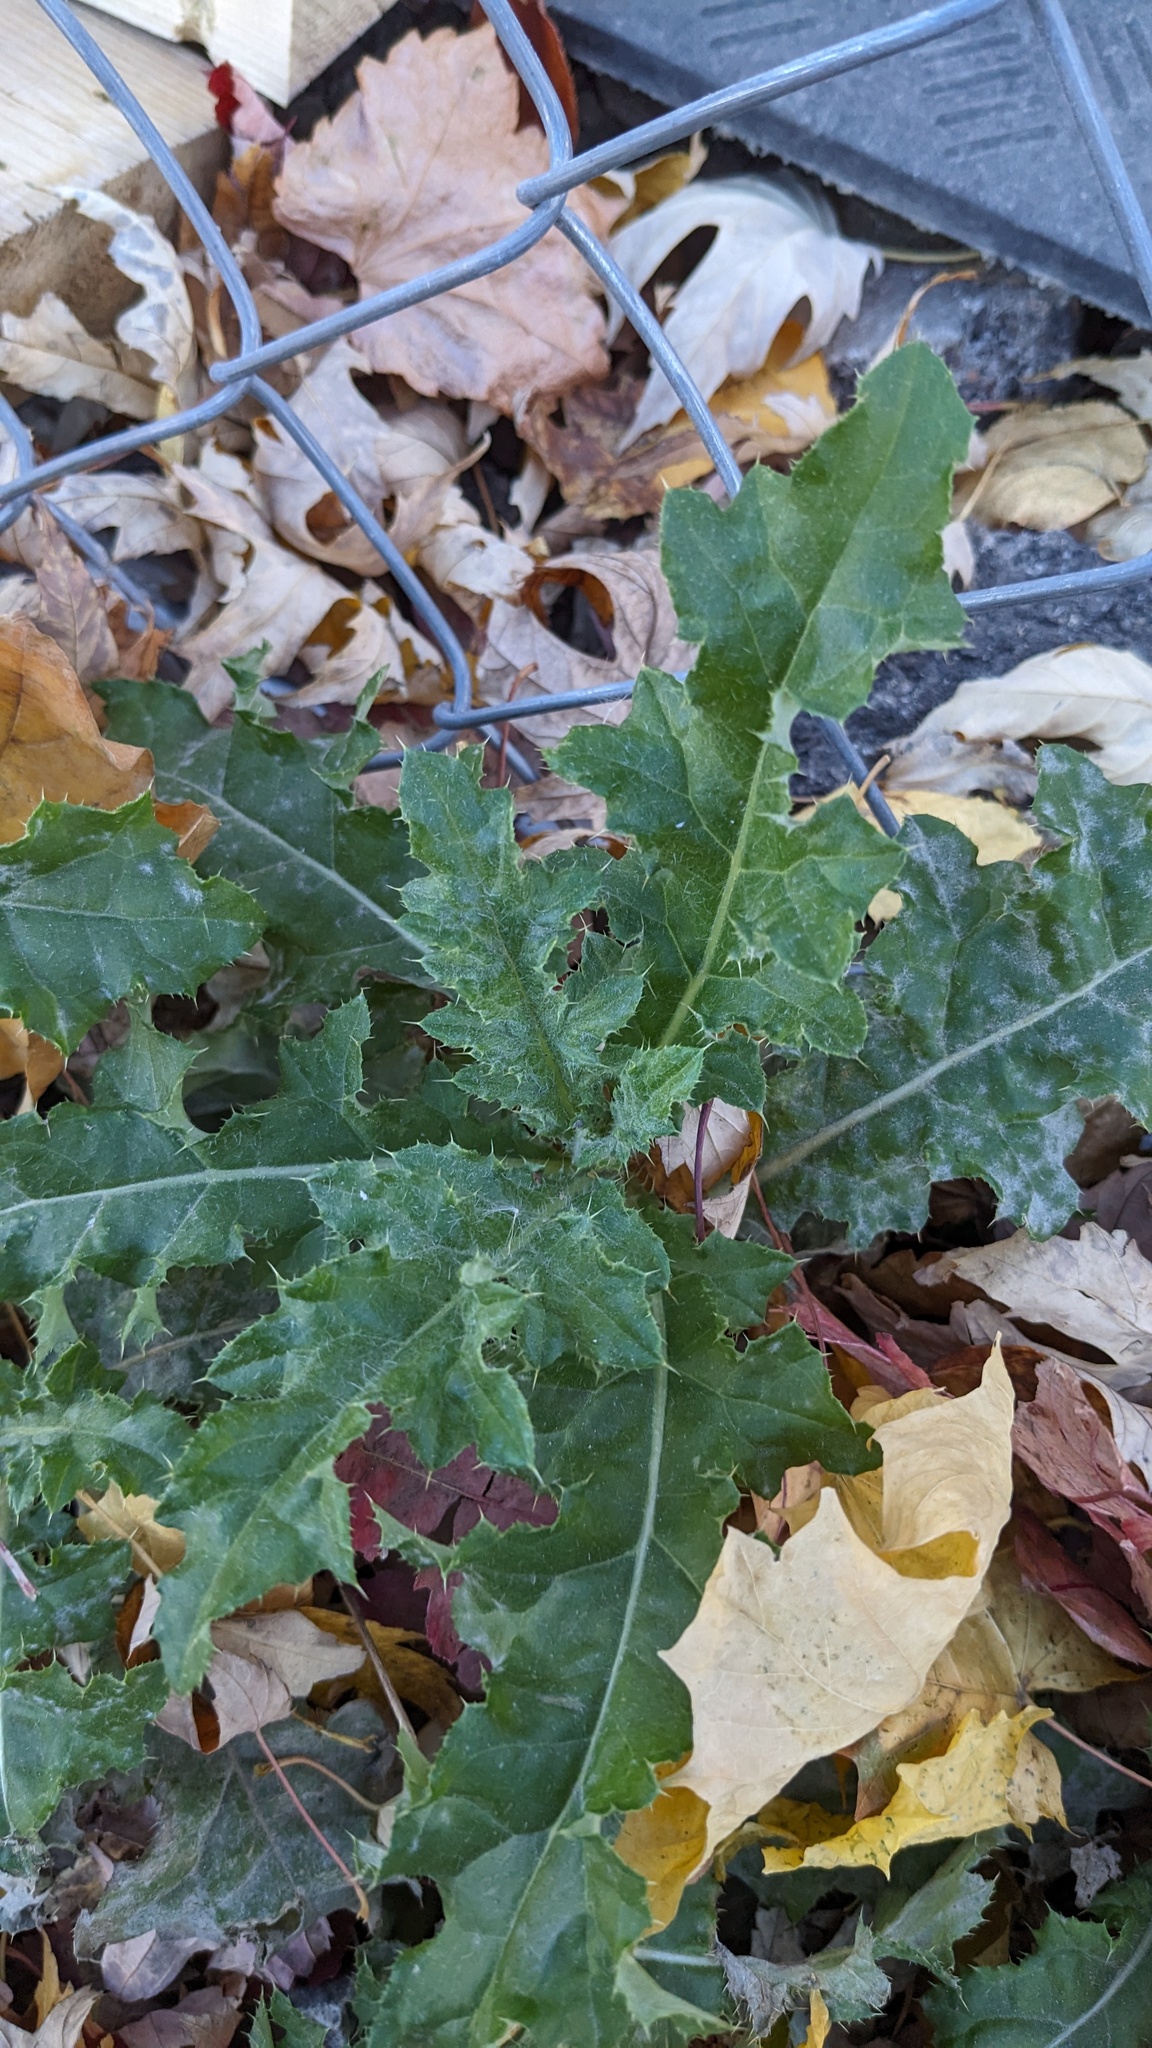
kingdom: Plantae
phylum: Tracheophyta
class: Magnoliopsida
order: Asterales
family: Asteraceae
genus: Cirsium
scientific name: Cirsium arvense
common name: Creeping thistle
